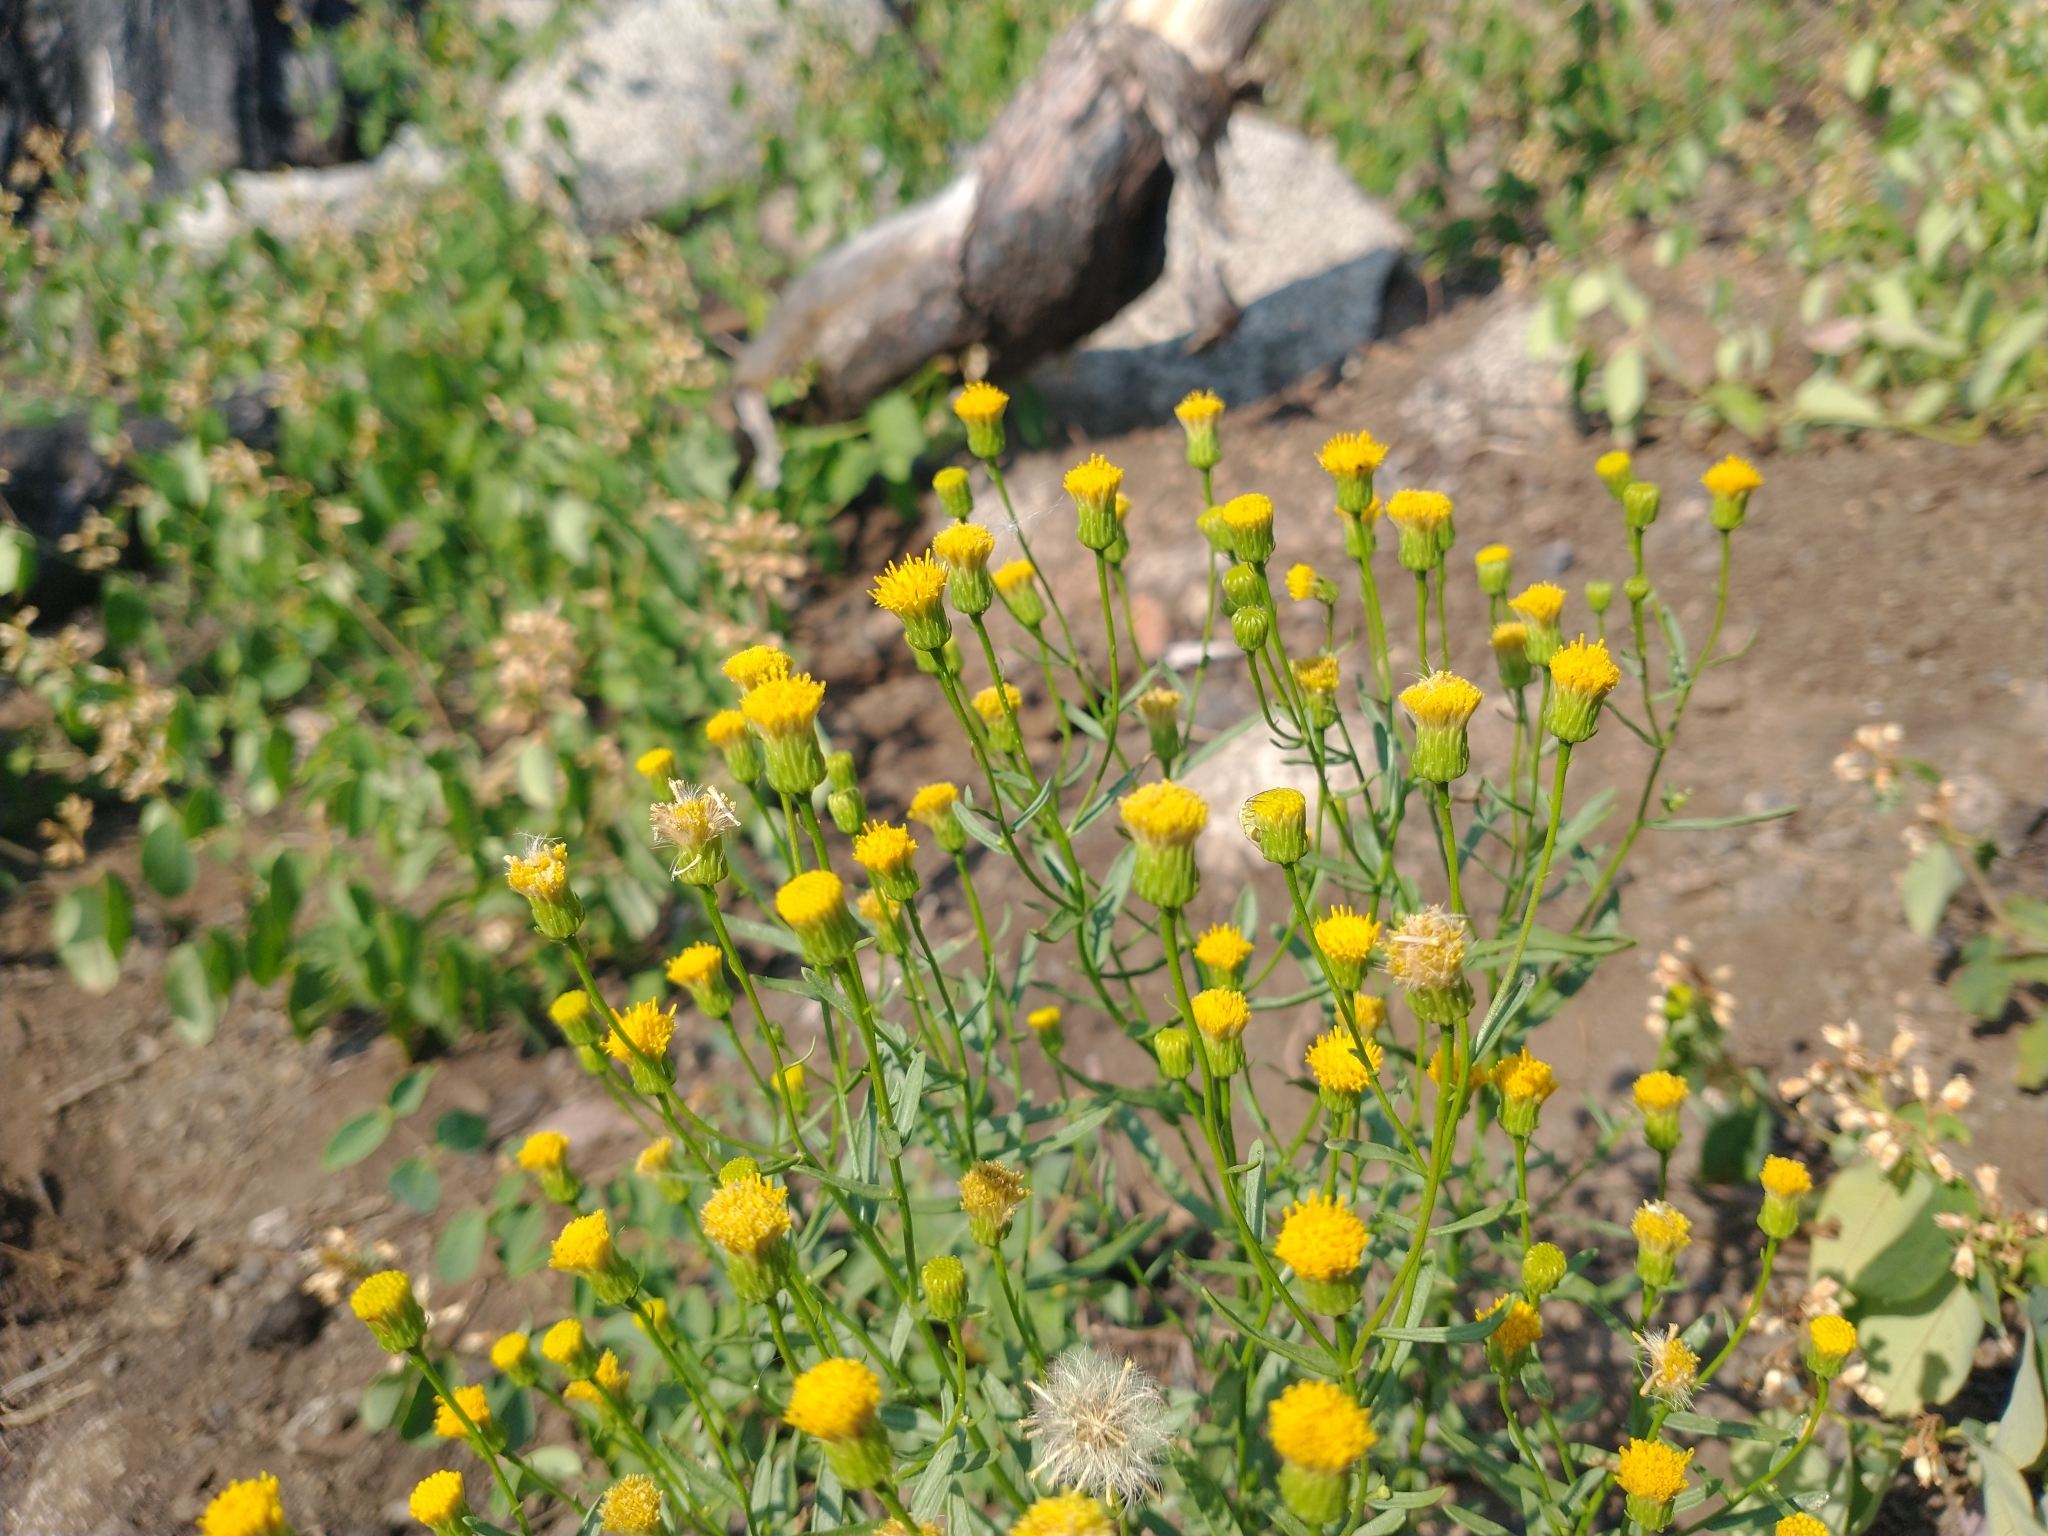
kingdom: Plantae
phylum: Tracheophyta
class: Magnoliopsida
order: Asterales
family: Asteraceae
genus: Eucephalus
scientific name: Eucephalus breweri
